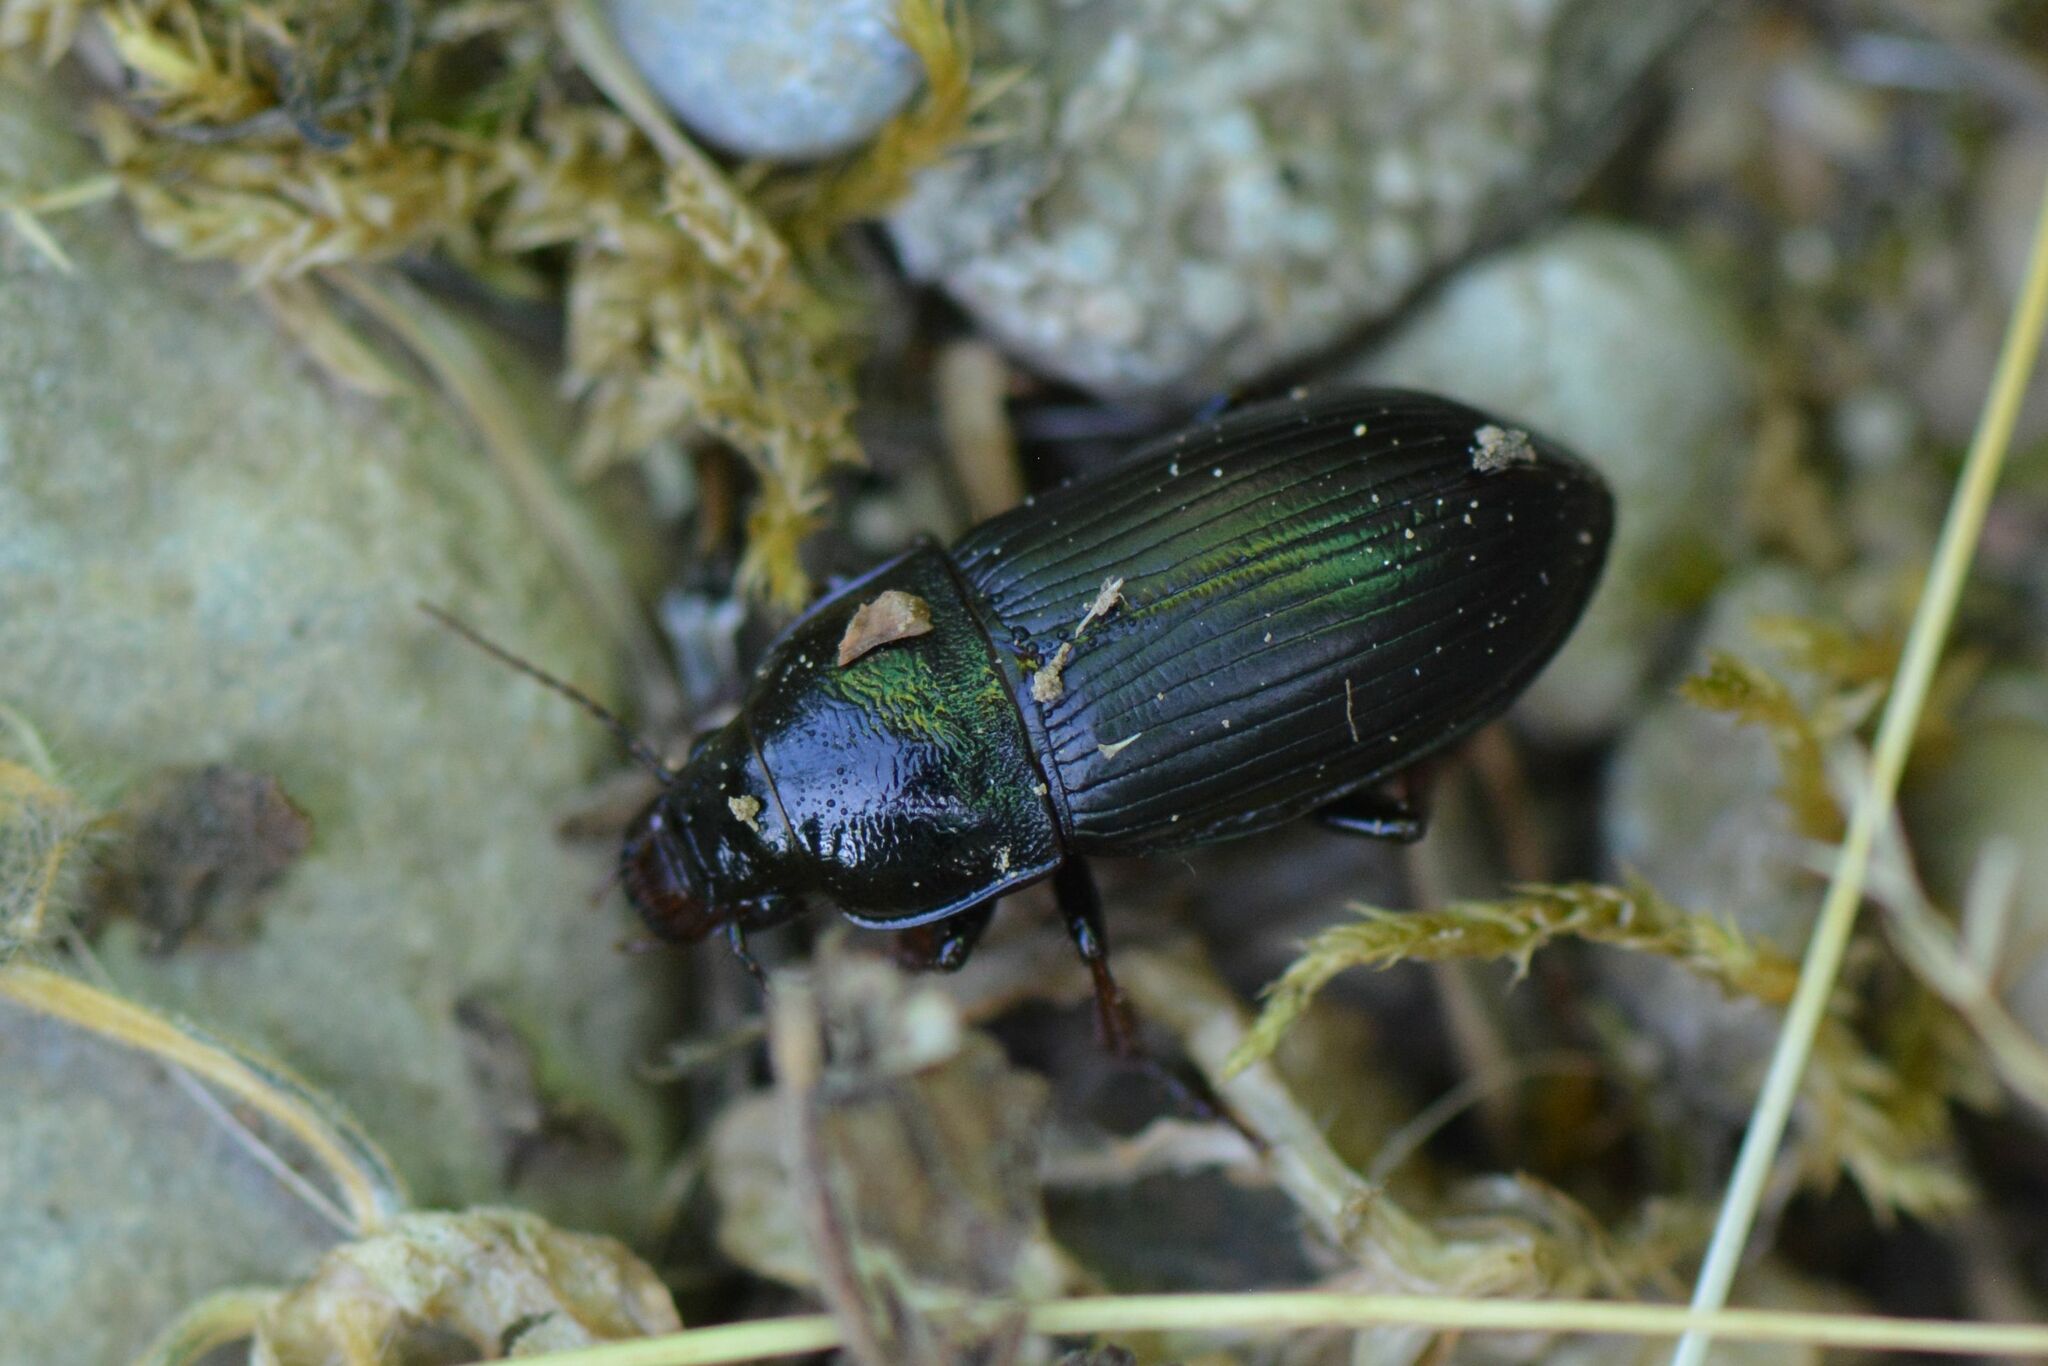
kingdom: Animalia
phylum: Arthropoda
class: Insecta
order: Coleoptera
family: Carabidae
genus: Zabrus
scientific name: Zabrus tenebrioides
